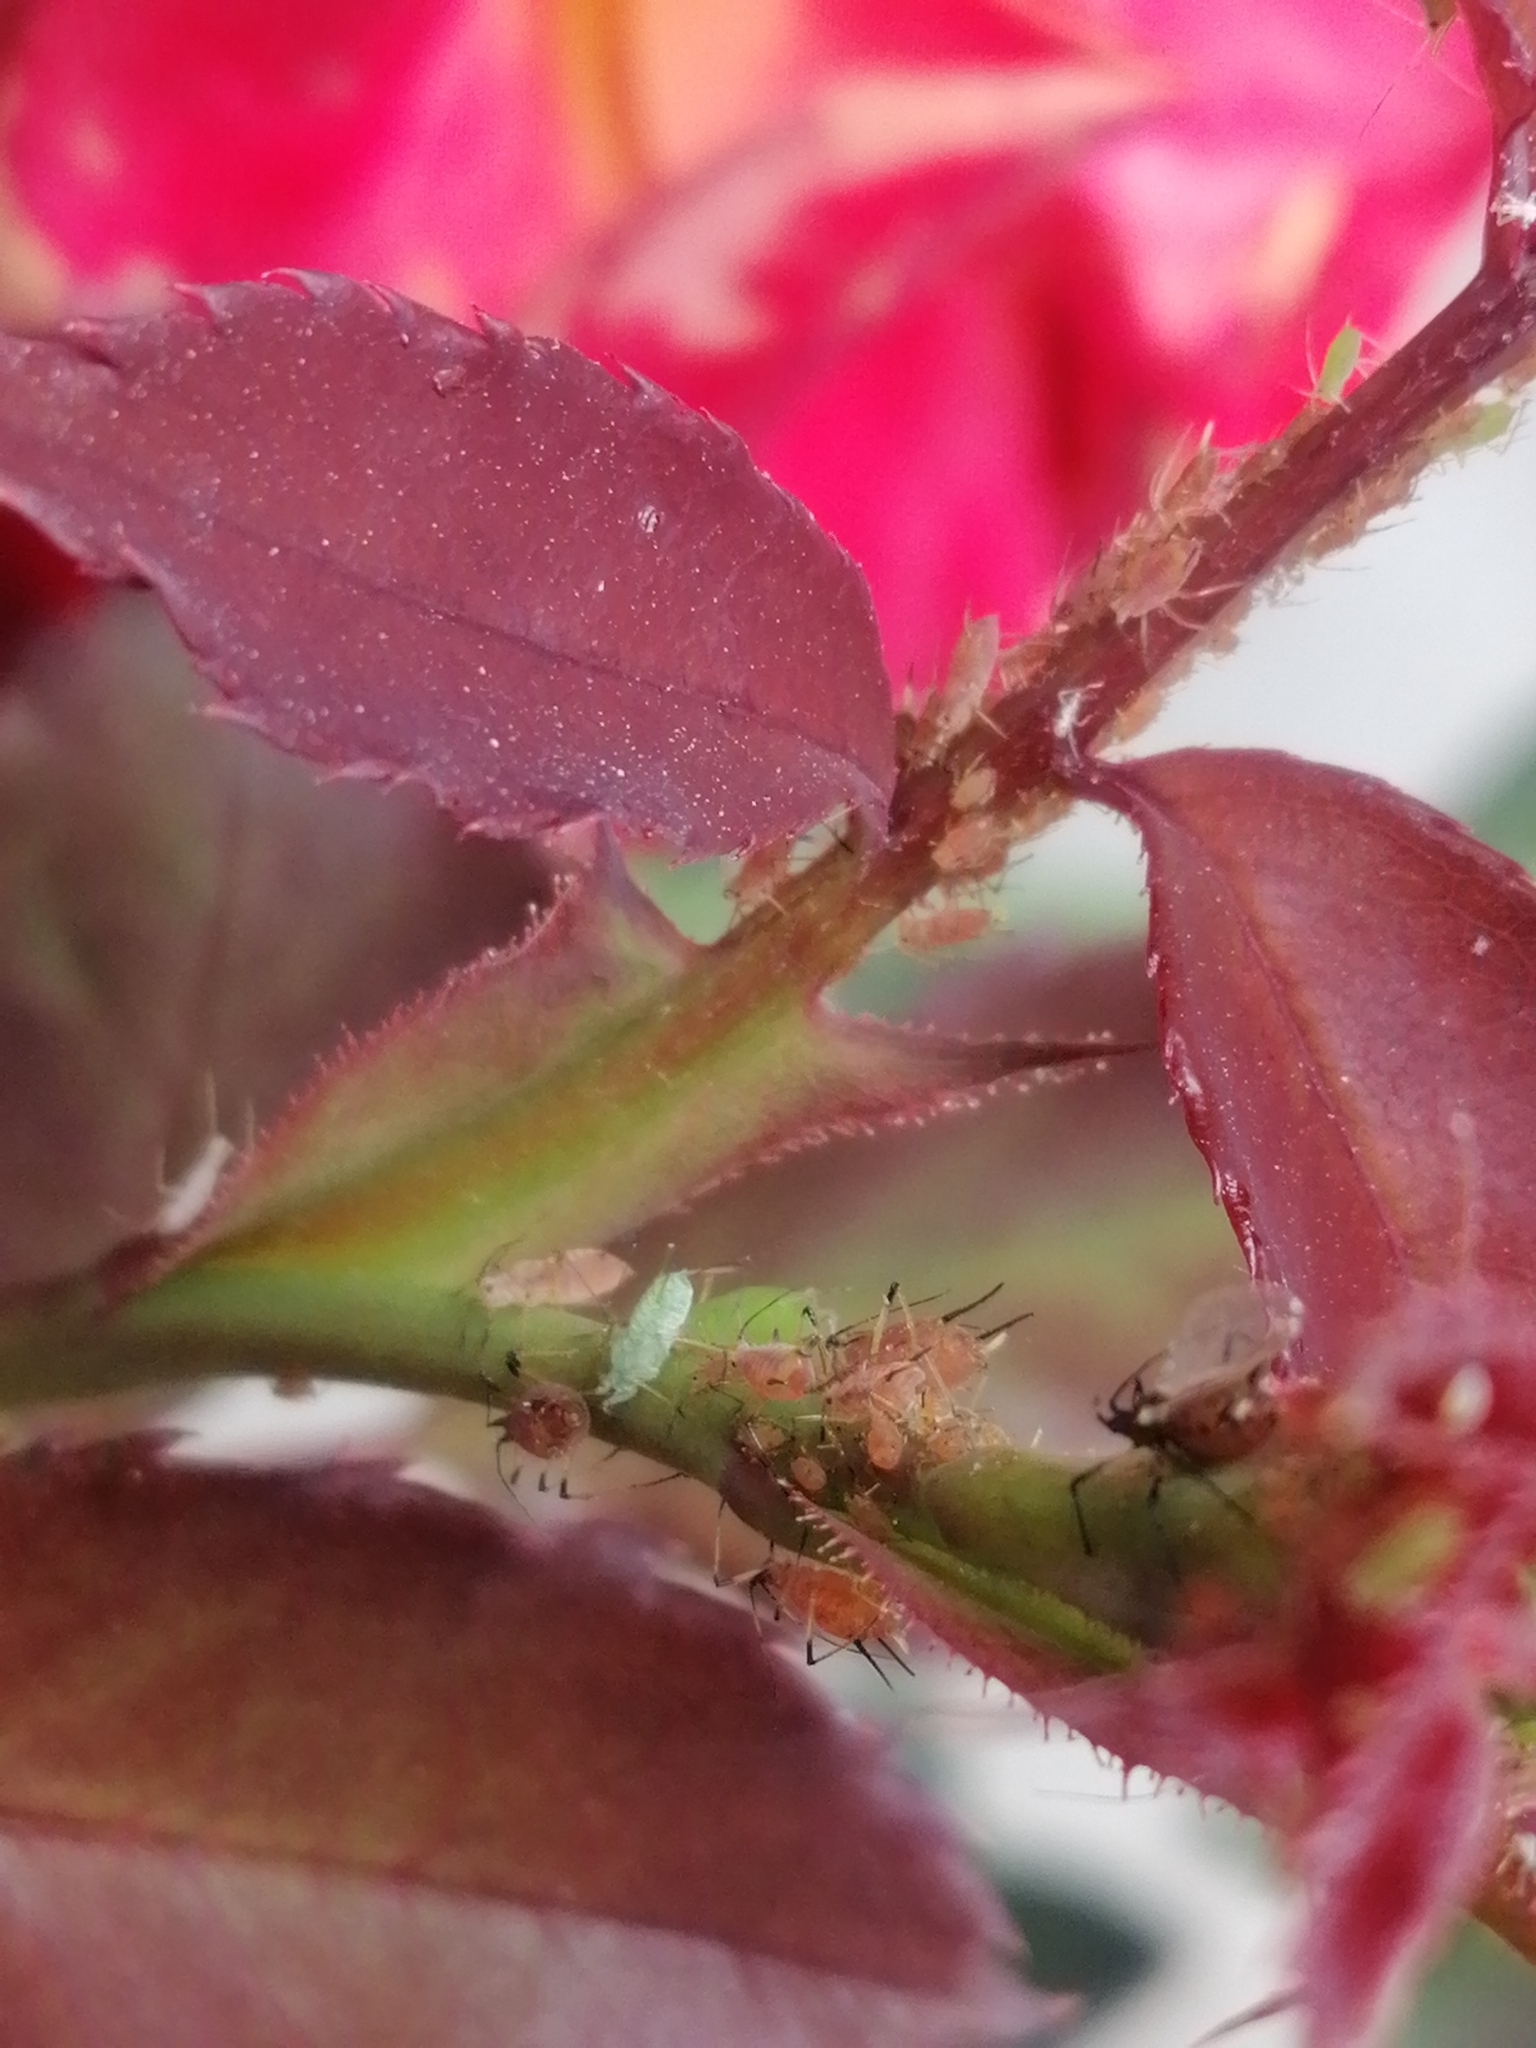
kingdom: Animalia
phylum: Arthropoda
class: Insecta
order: Hemiptera
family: Aphididae
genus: Macrosiphum
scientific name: Macrosiphum rosae
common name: Rose aphid
